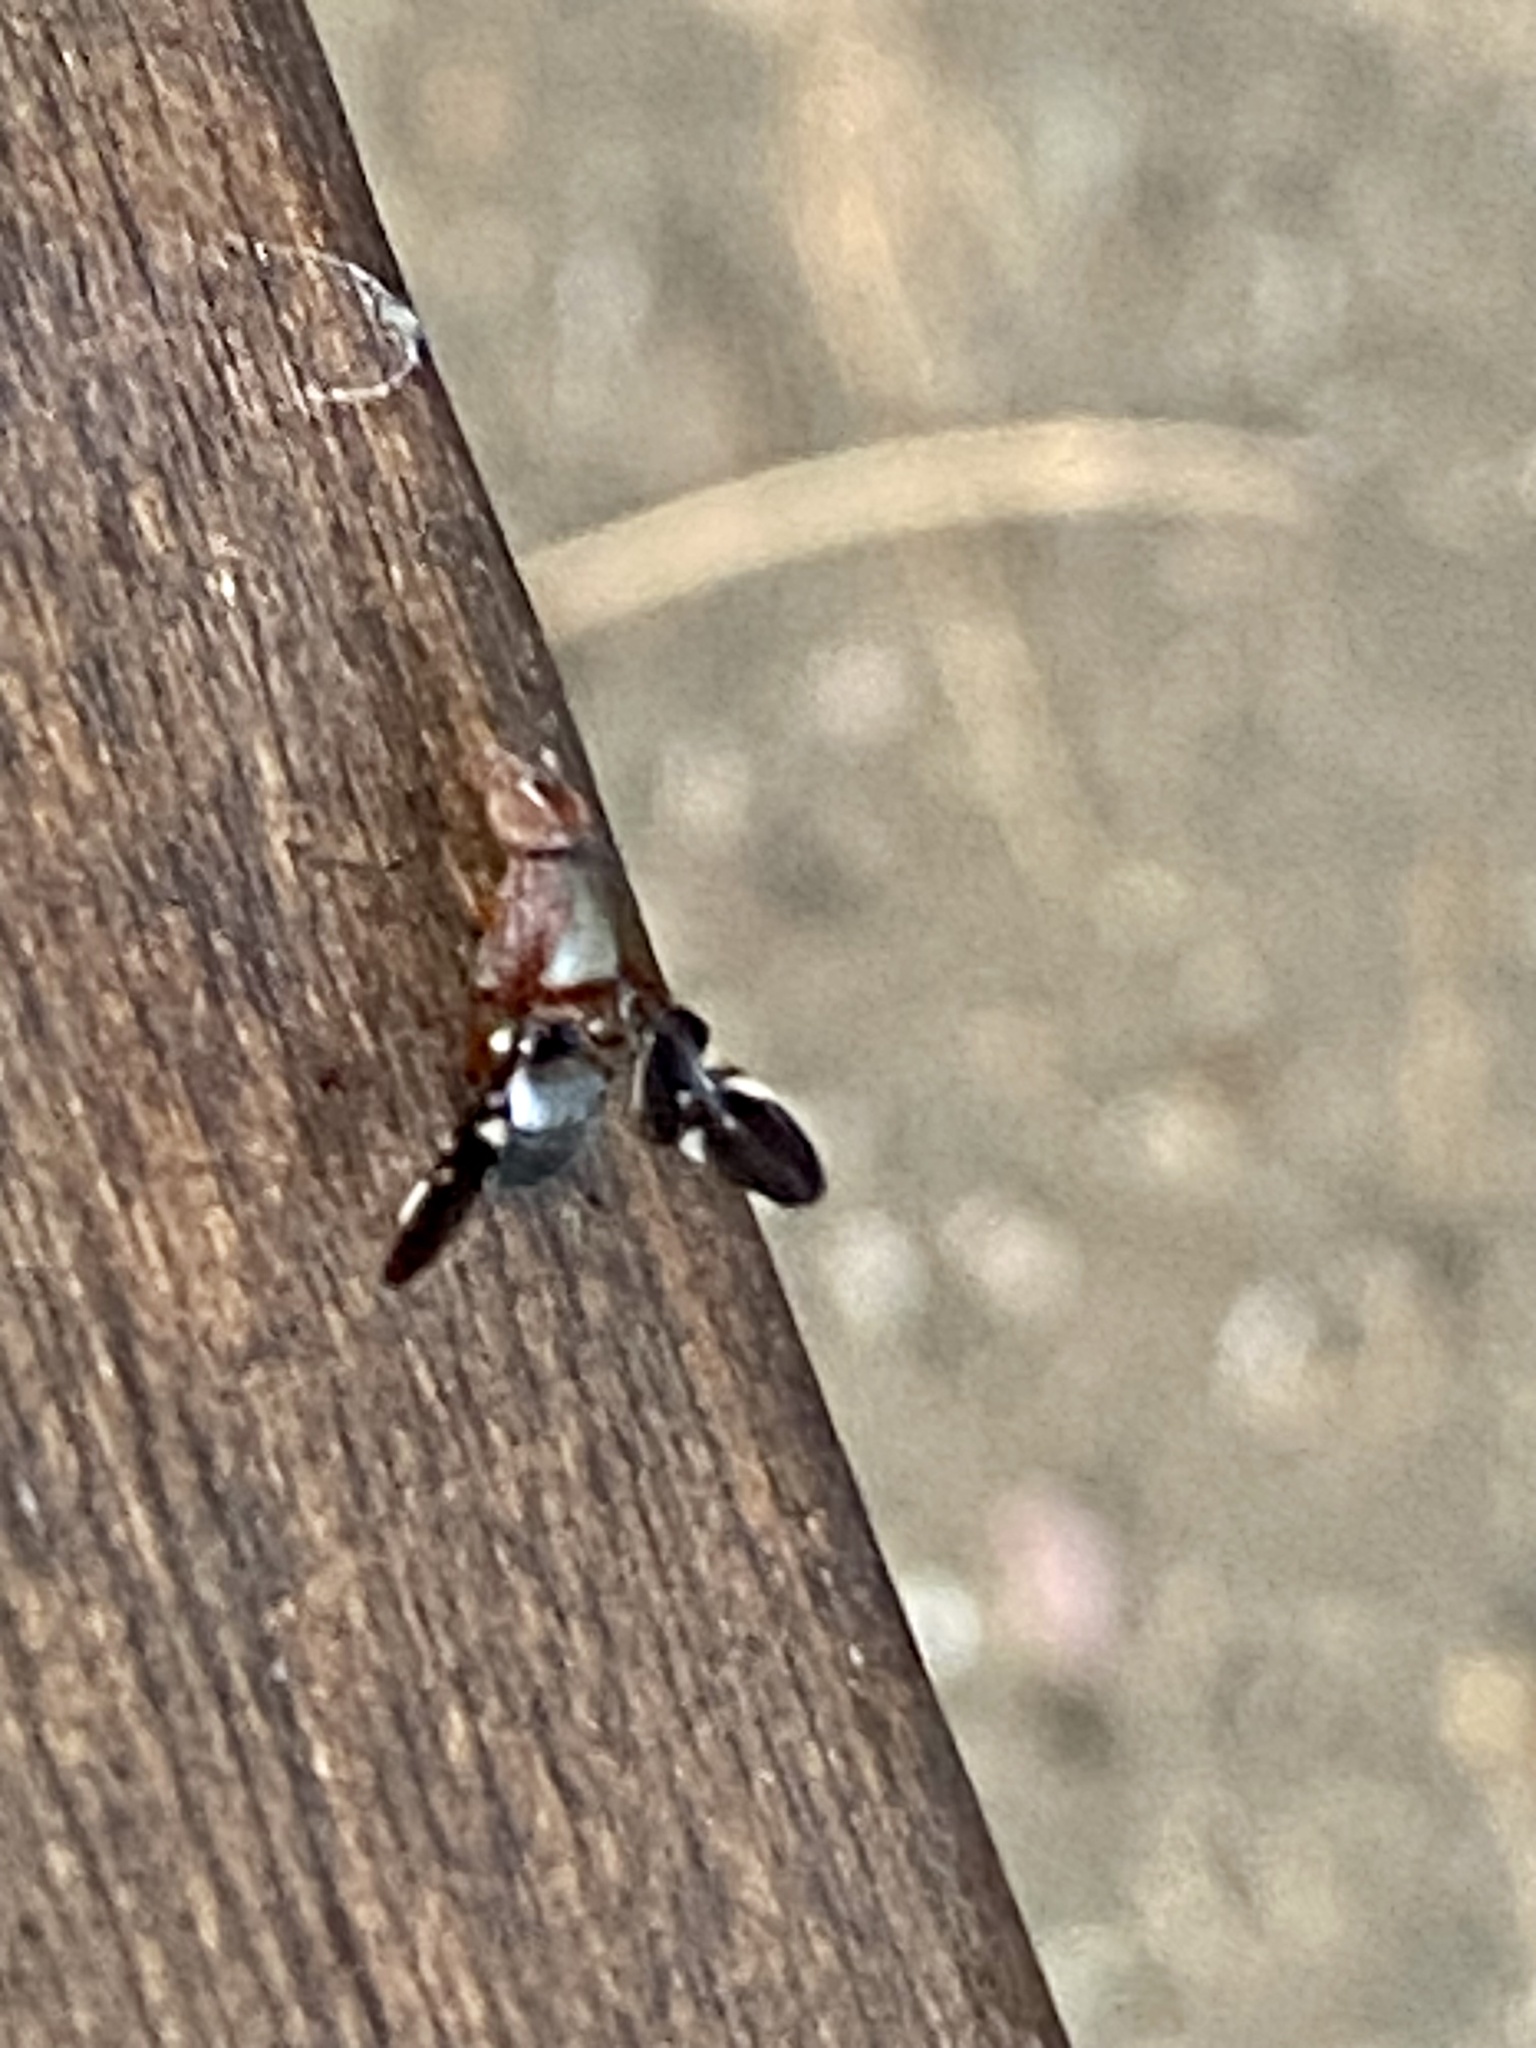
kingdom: Animalia
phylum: Arthropoda
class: Insecta
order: Diptera
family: Ulidiidae
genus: Delphinia
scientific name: Delphinia picta
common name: Common picture-winged fly
